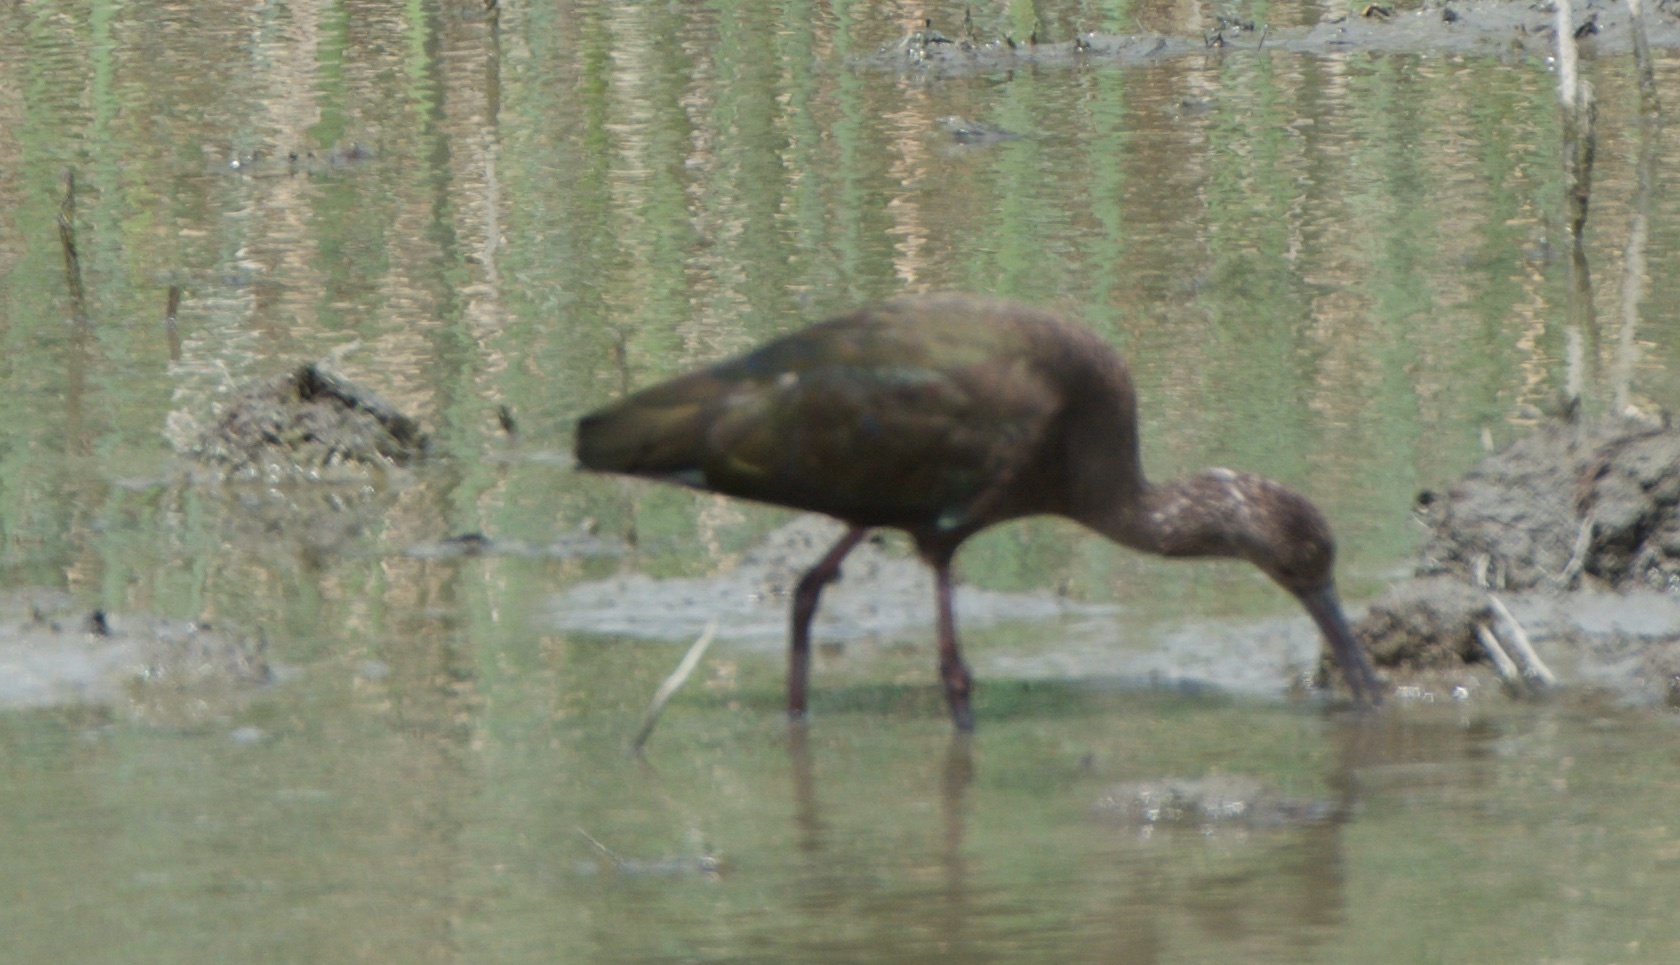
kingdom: Animalia
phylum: Chordata
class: Aves
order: Pelecaniformes
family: Threskiornithidae
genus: Plegadis
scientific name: Plegadis chihi
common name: White-faced ibis
